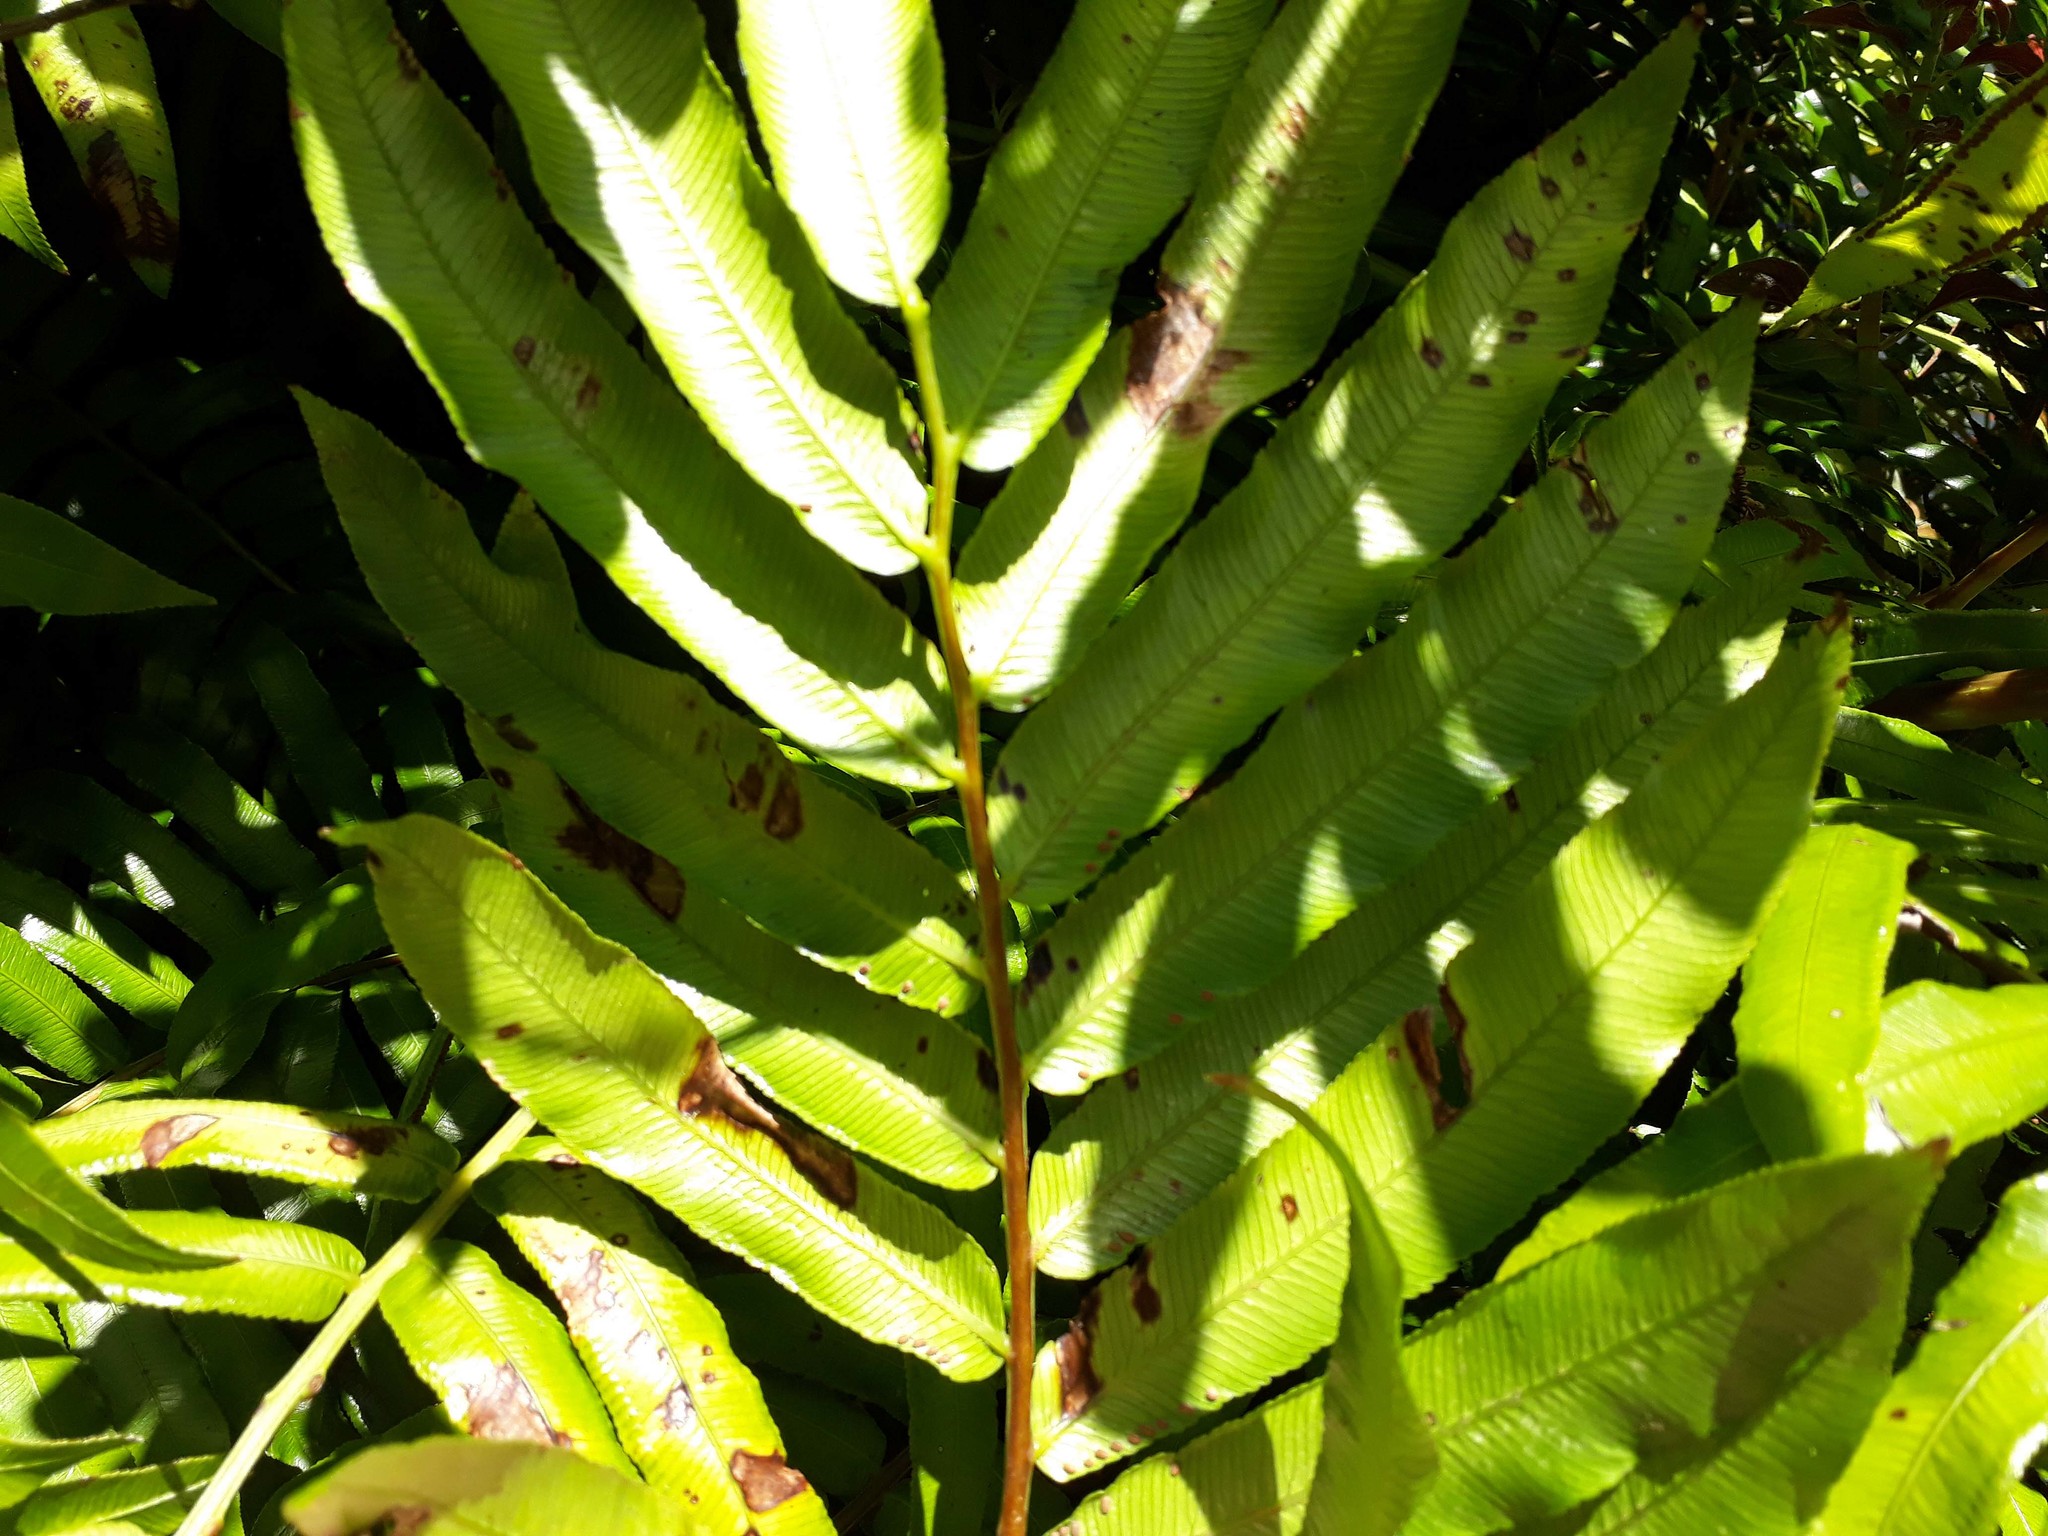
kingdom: Plantae
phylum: Tracheophyta
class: Polypodiopsida
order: Marattiales
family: Marattiaceae
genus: Ptisana
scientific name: Ptisana salicina
